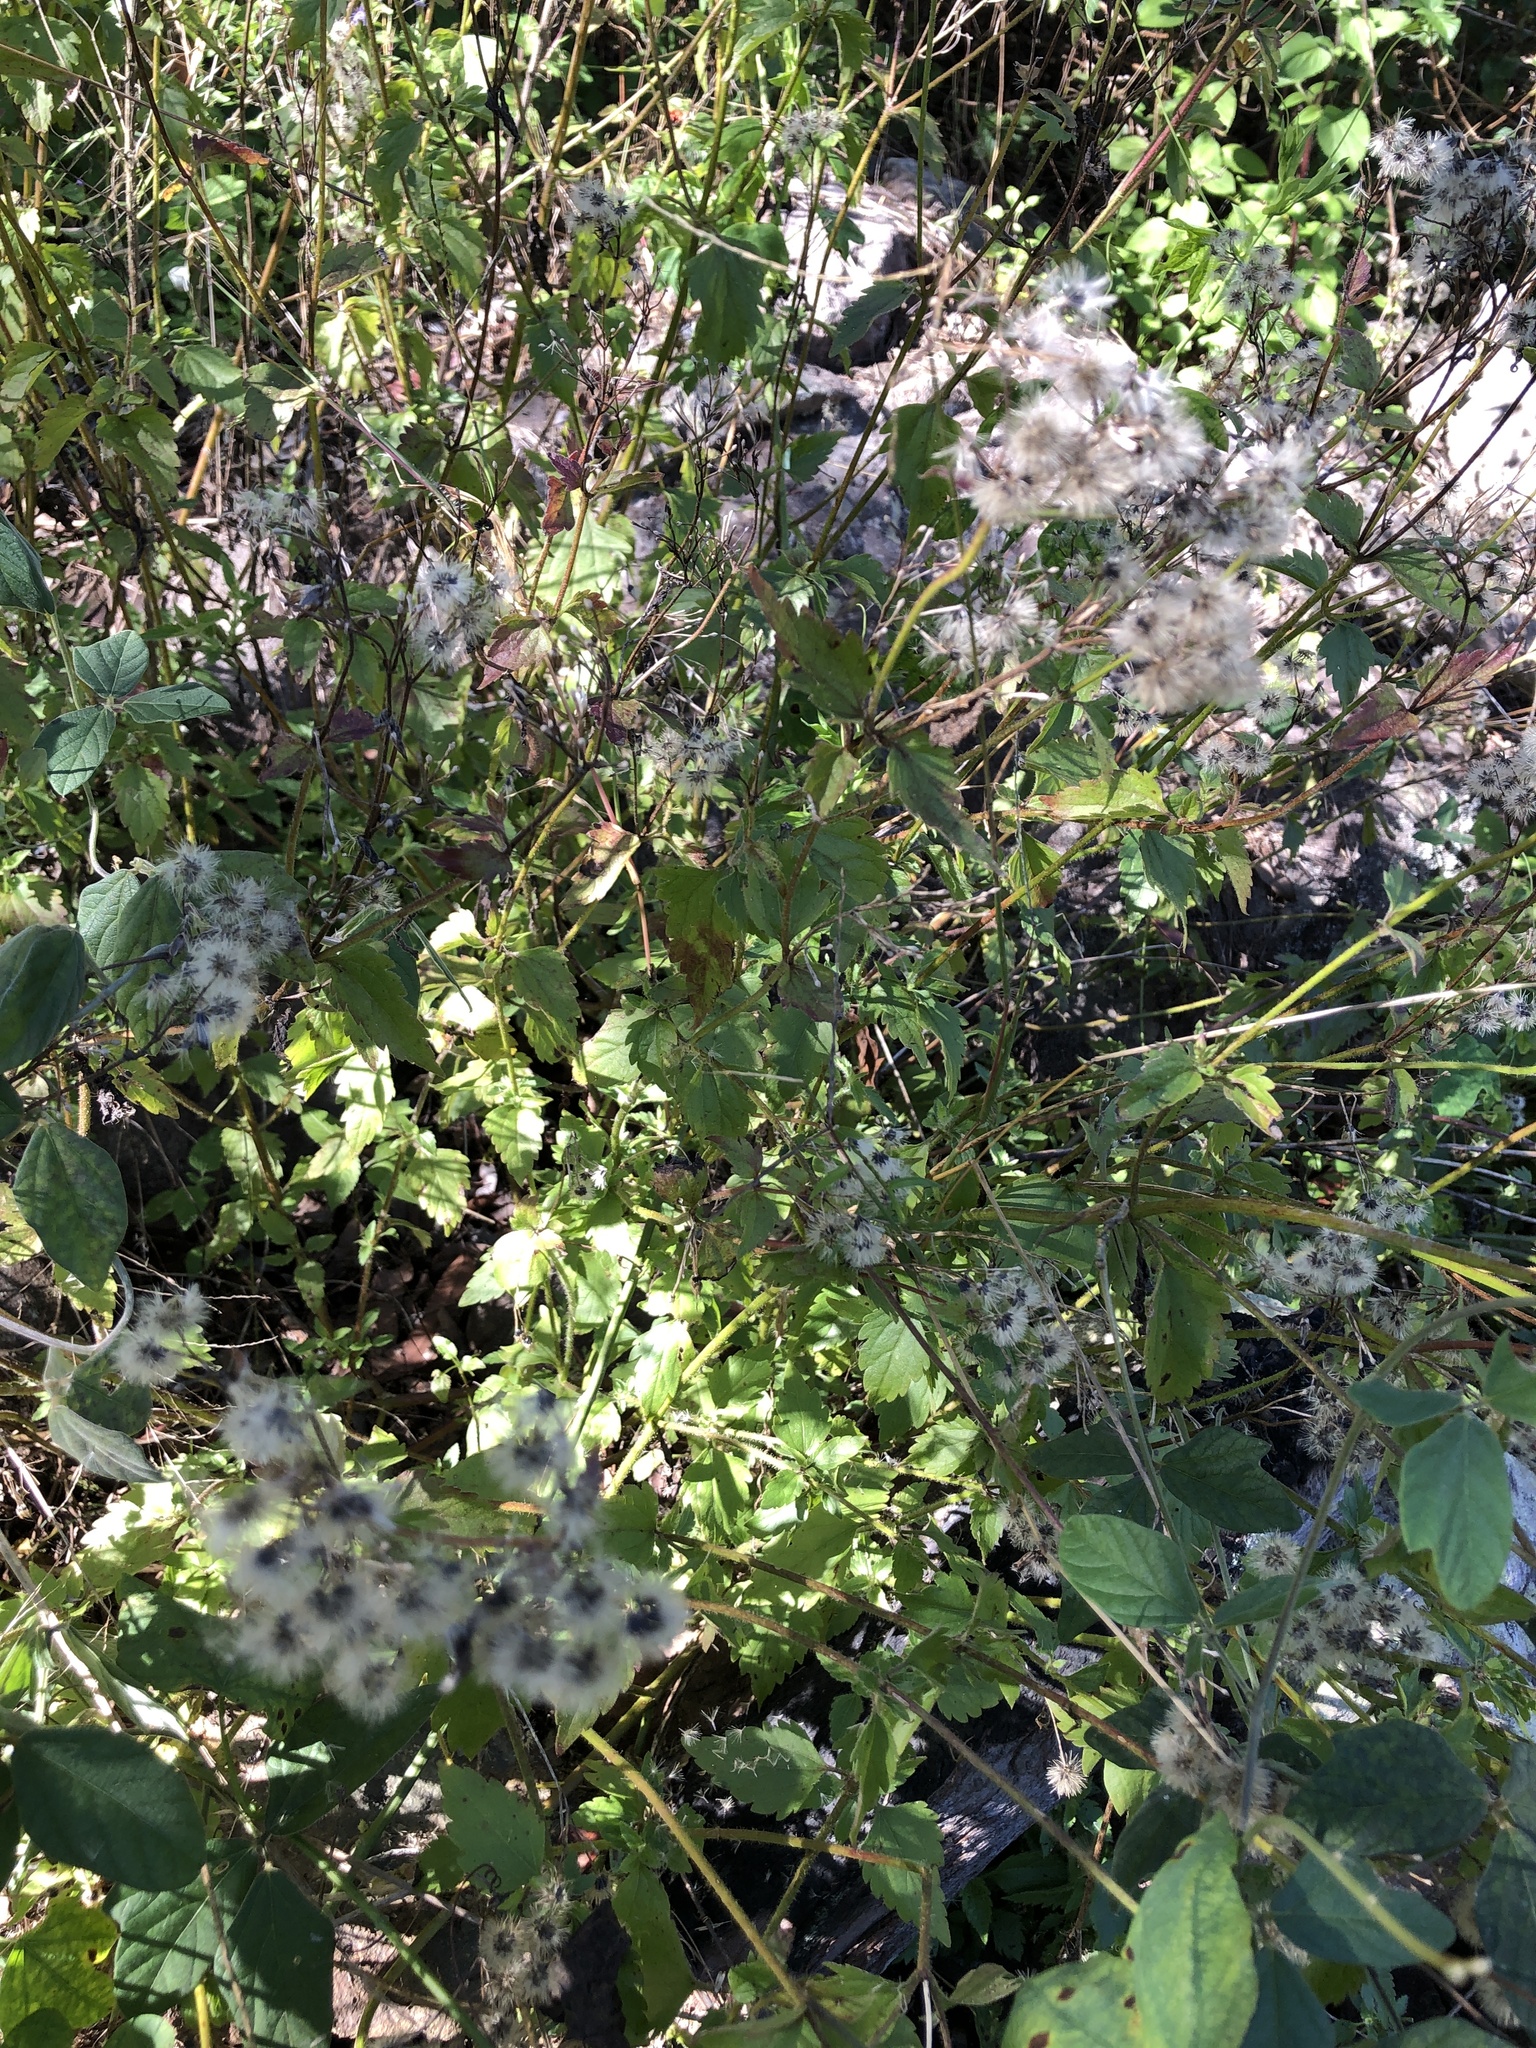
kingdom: Plantae
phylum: Tracheophyta
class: Magnoliopsida
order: Asterales
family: Asteraceae
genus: Praxelis
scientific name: Praxelis clematidea
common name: Praxelis
